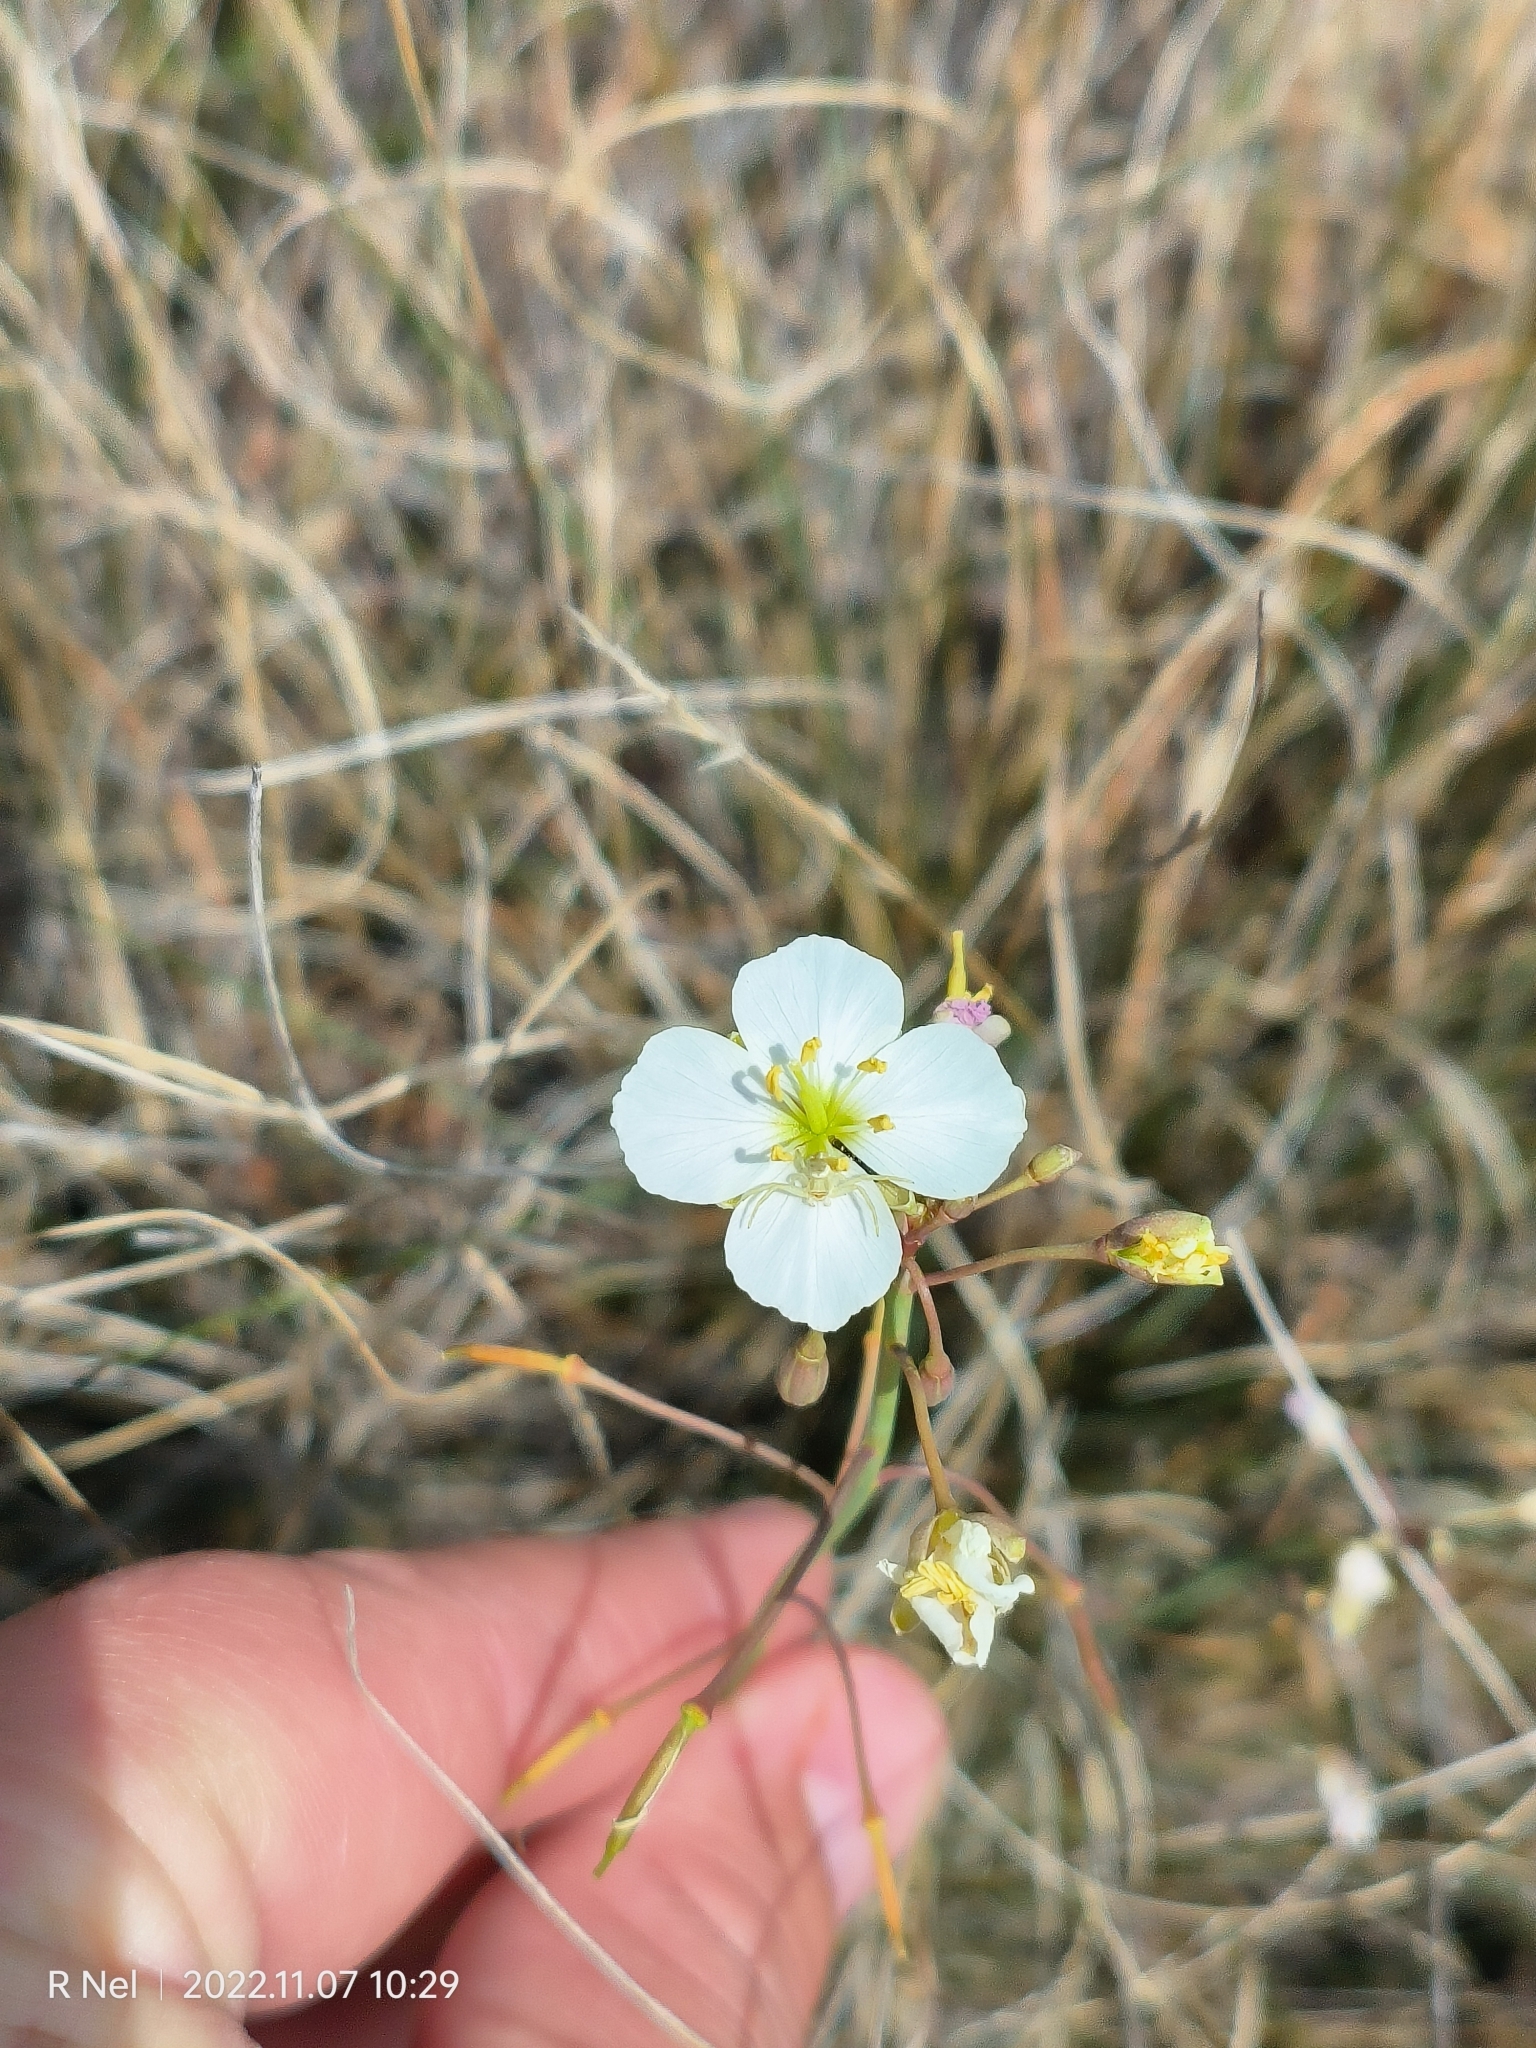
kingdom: Plantae
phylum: Tracheophyta
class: Magnoliopsida
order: Brassicales
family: Brassicaceae
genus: Heliophila
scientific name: Heliophila carnosa
